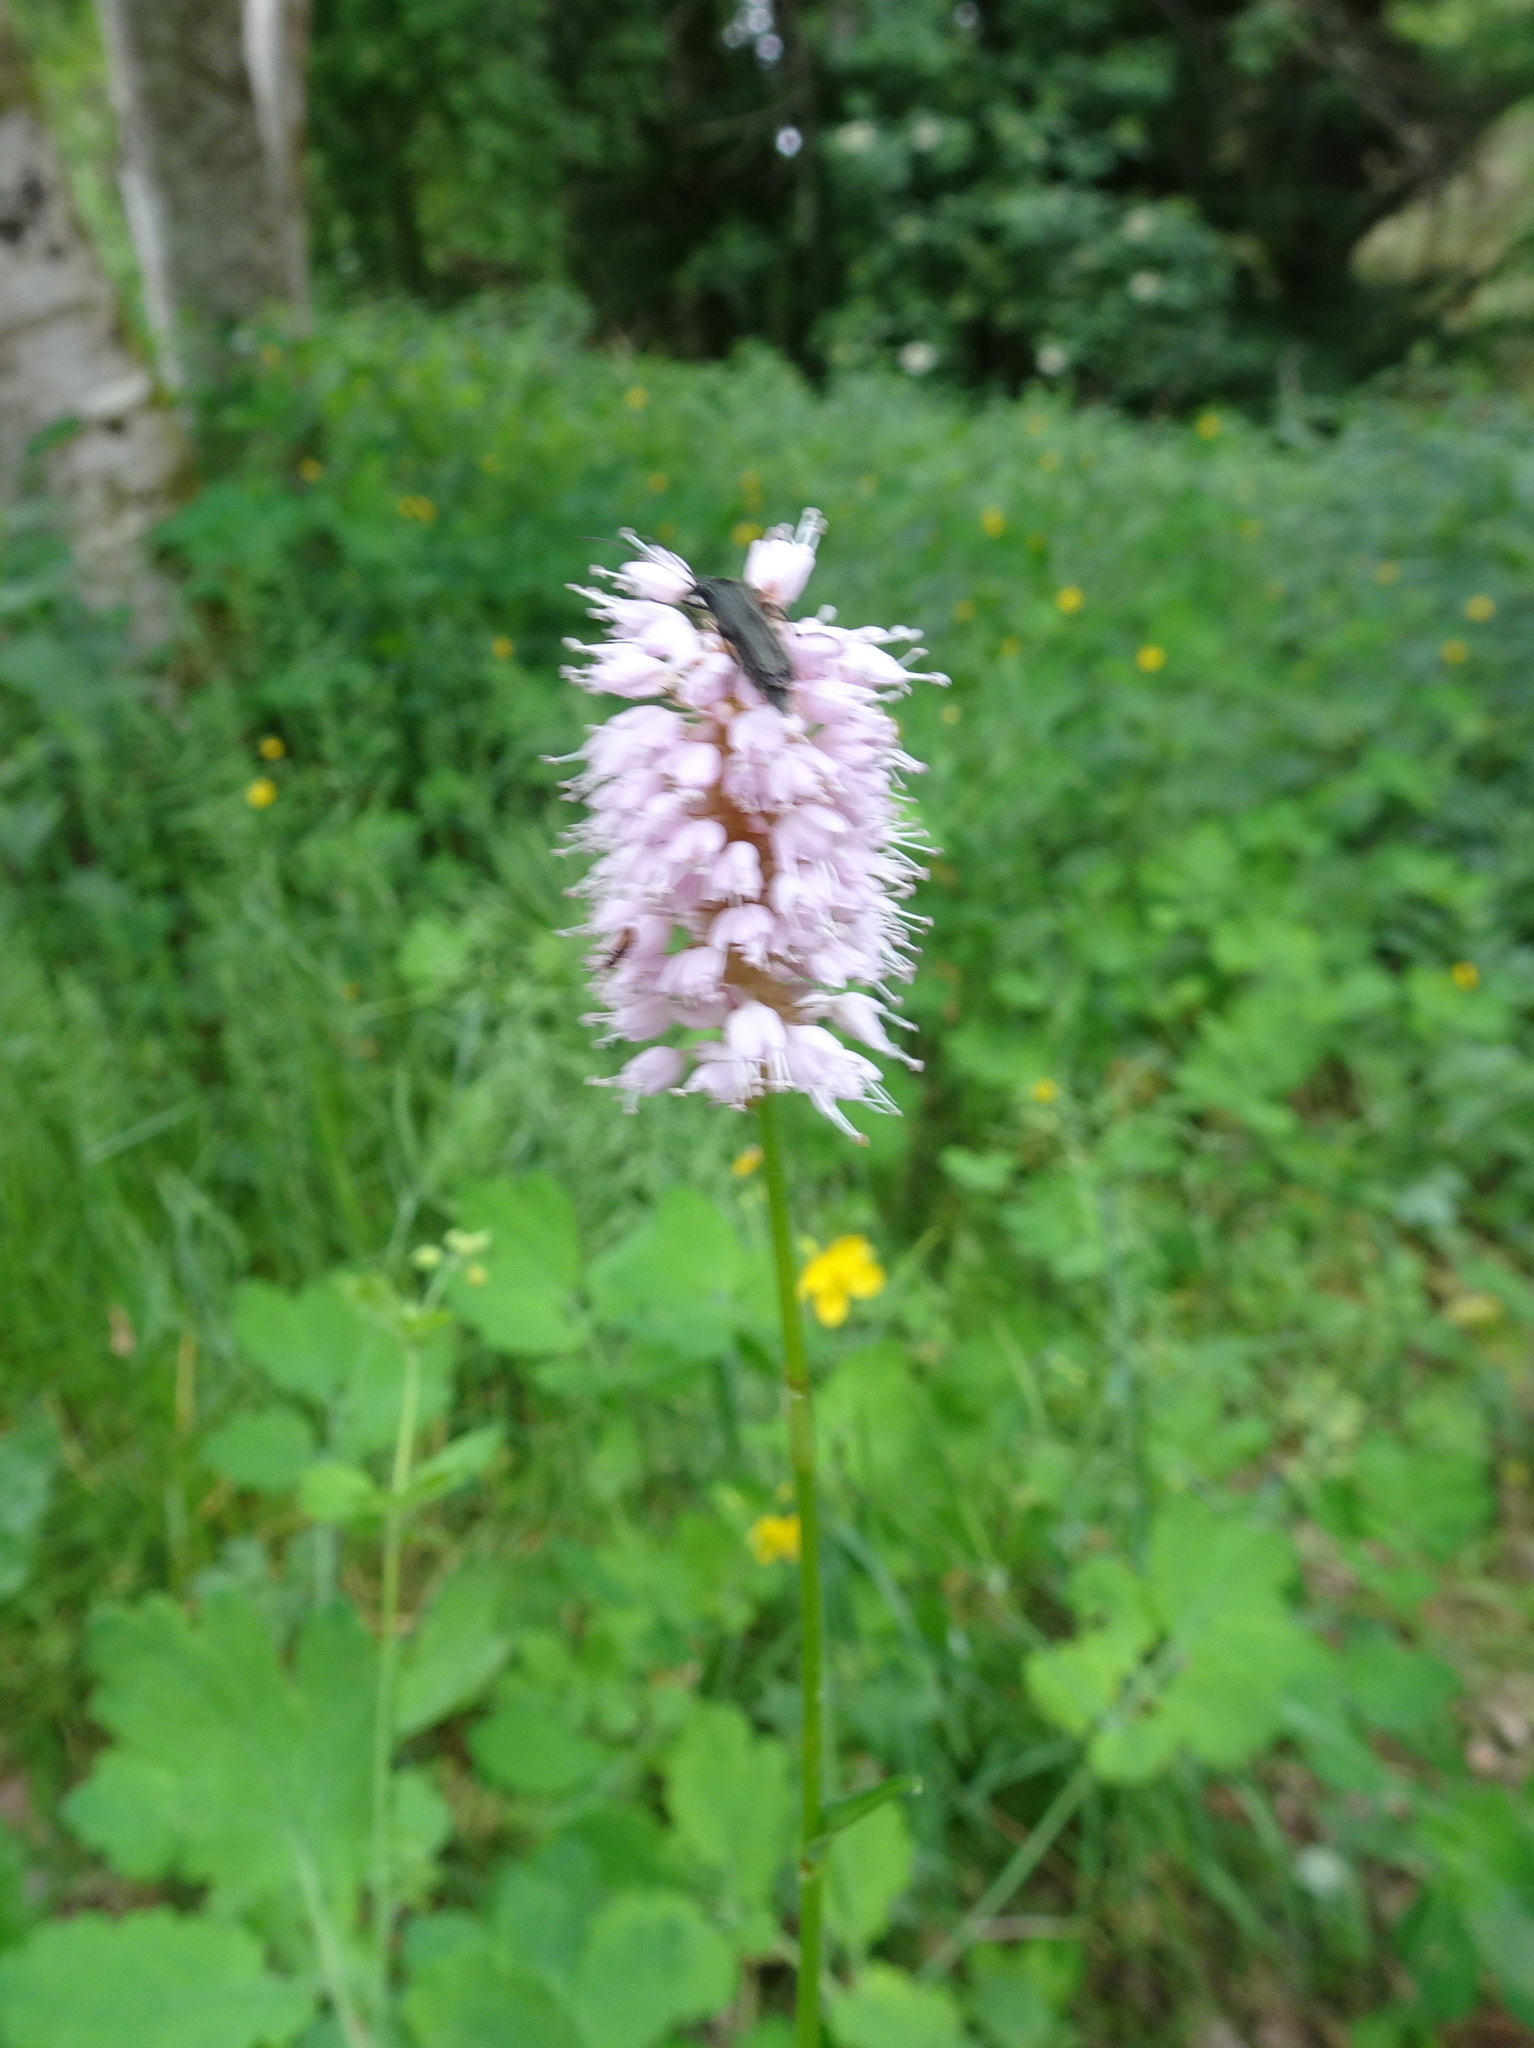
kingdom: Plantae
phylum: Tracheophyta
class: Magnoliopsida
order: Caryophyllales
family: Polygonaceae
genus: Bistorta
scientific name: Bistorta officinalis
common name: Common bistort
